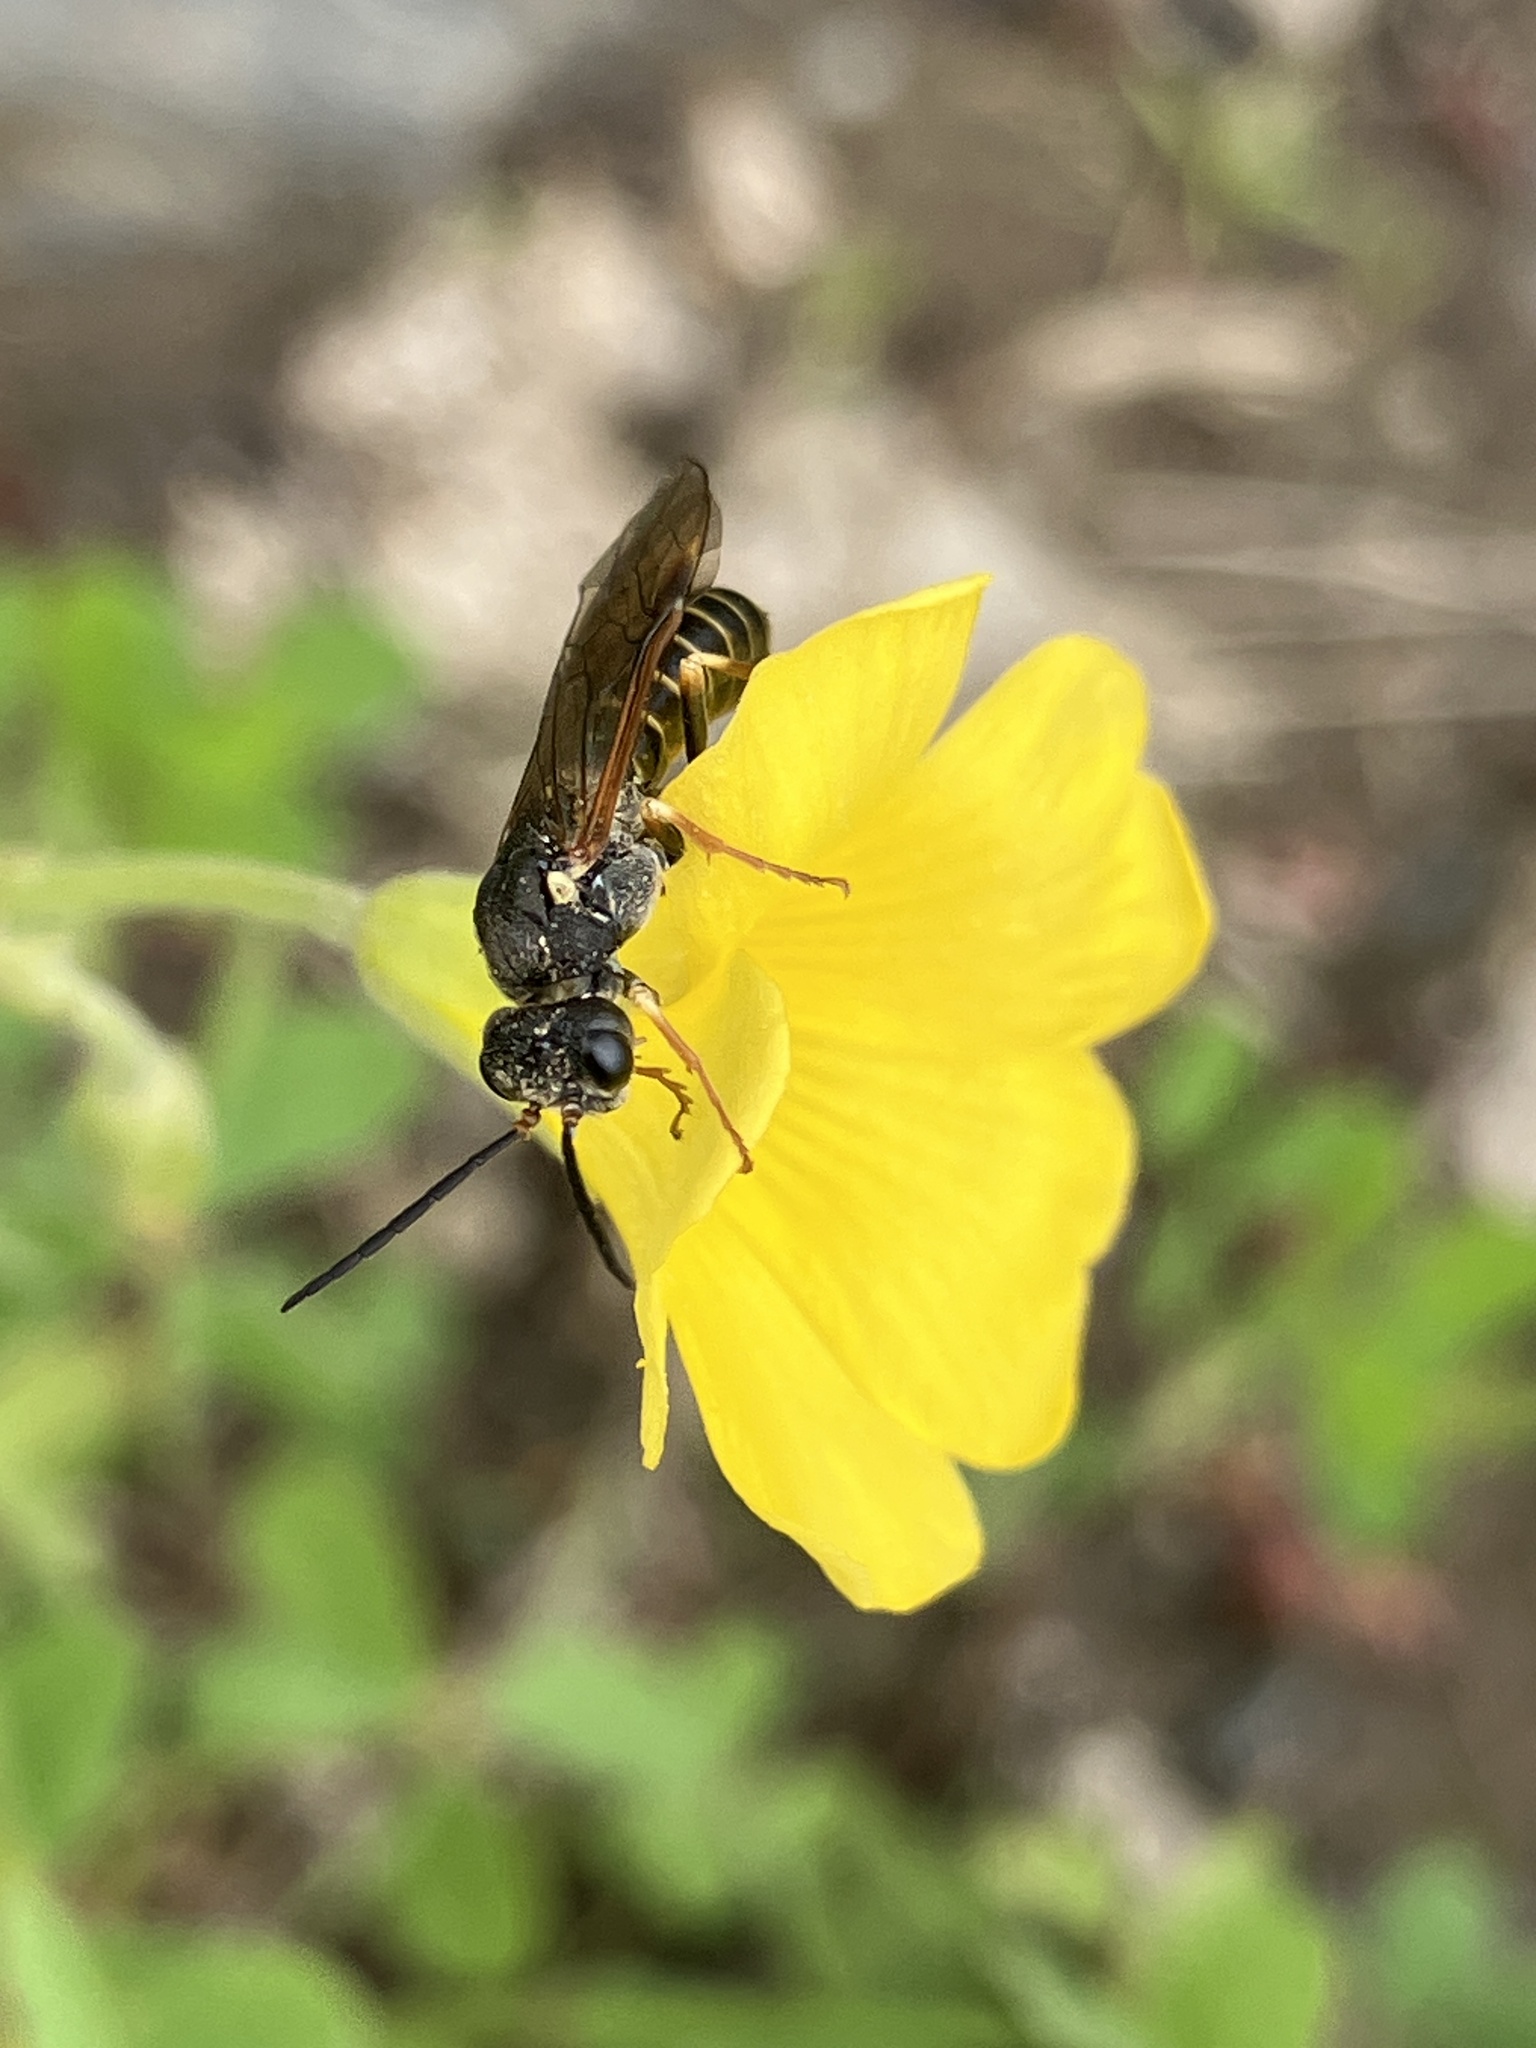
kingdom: Animalia
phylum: Arthropoda
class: Insecta
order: Hymenoptera
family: Tenthredinidae
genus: Strongylogaster
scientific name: Strongylogaster multifasciata
